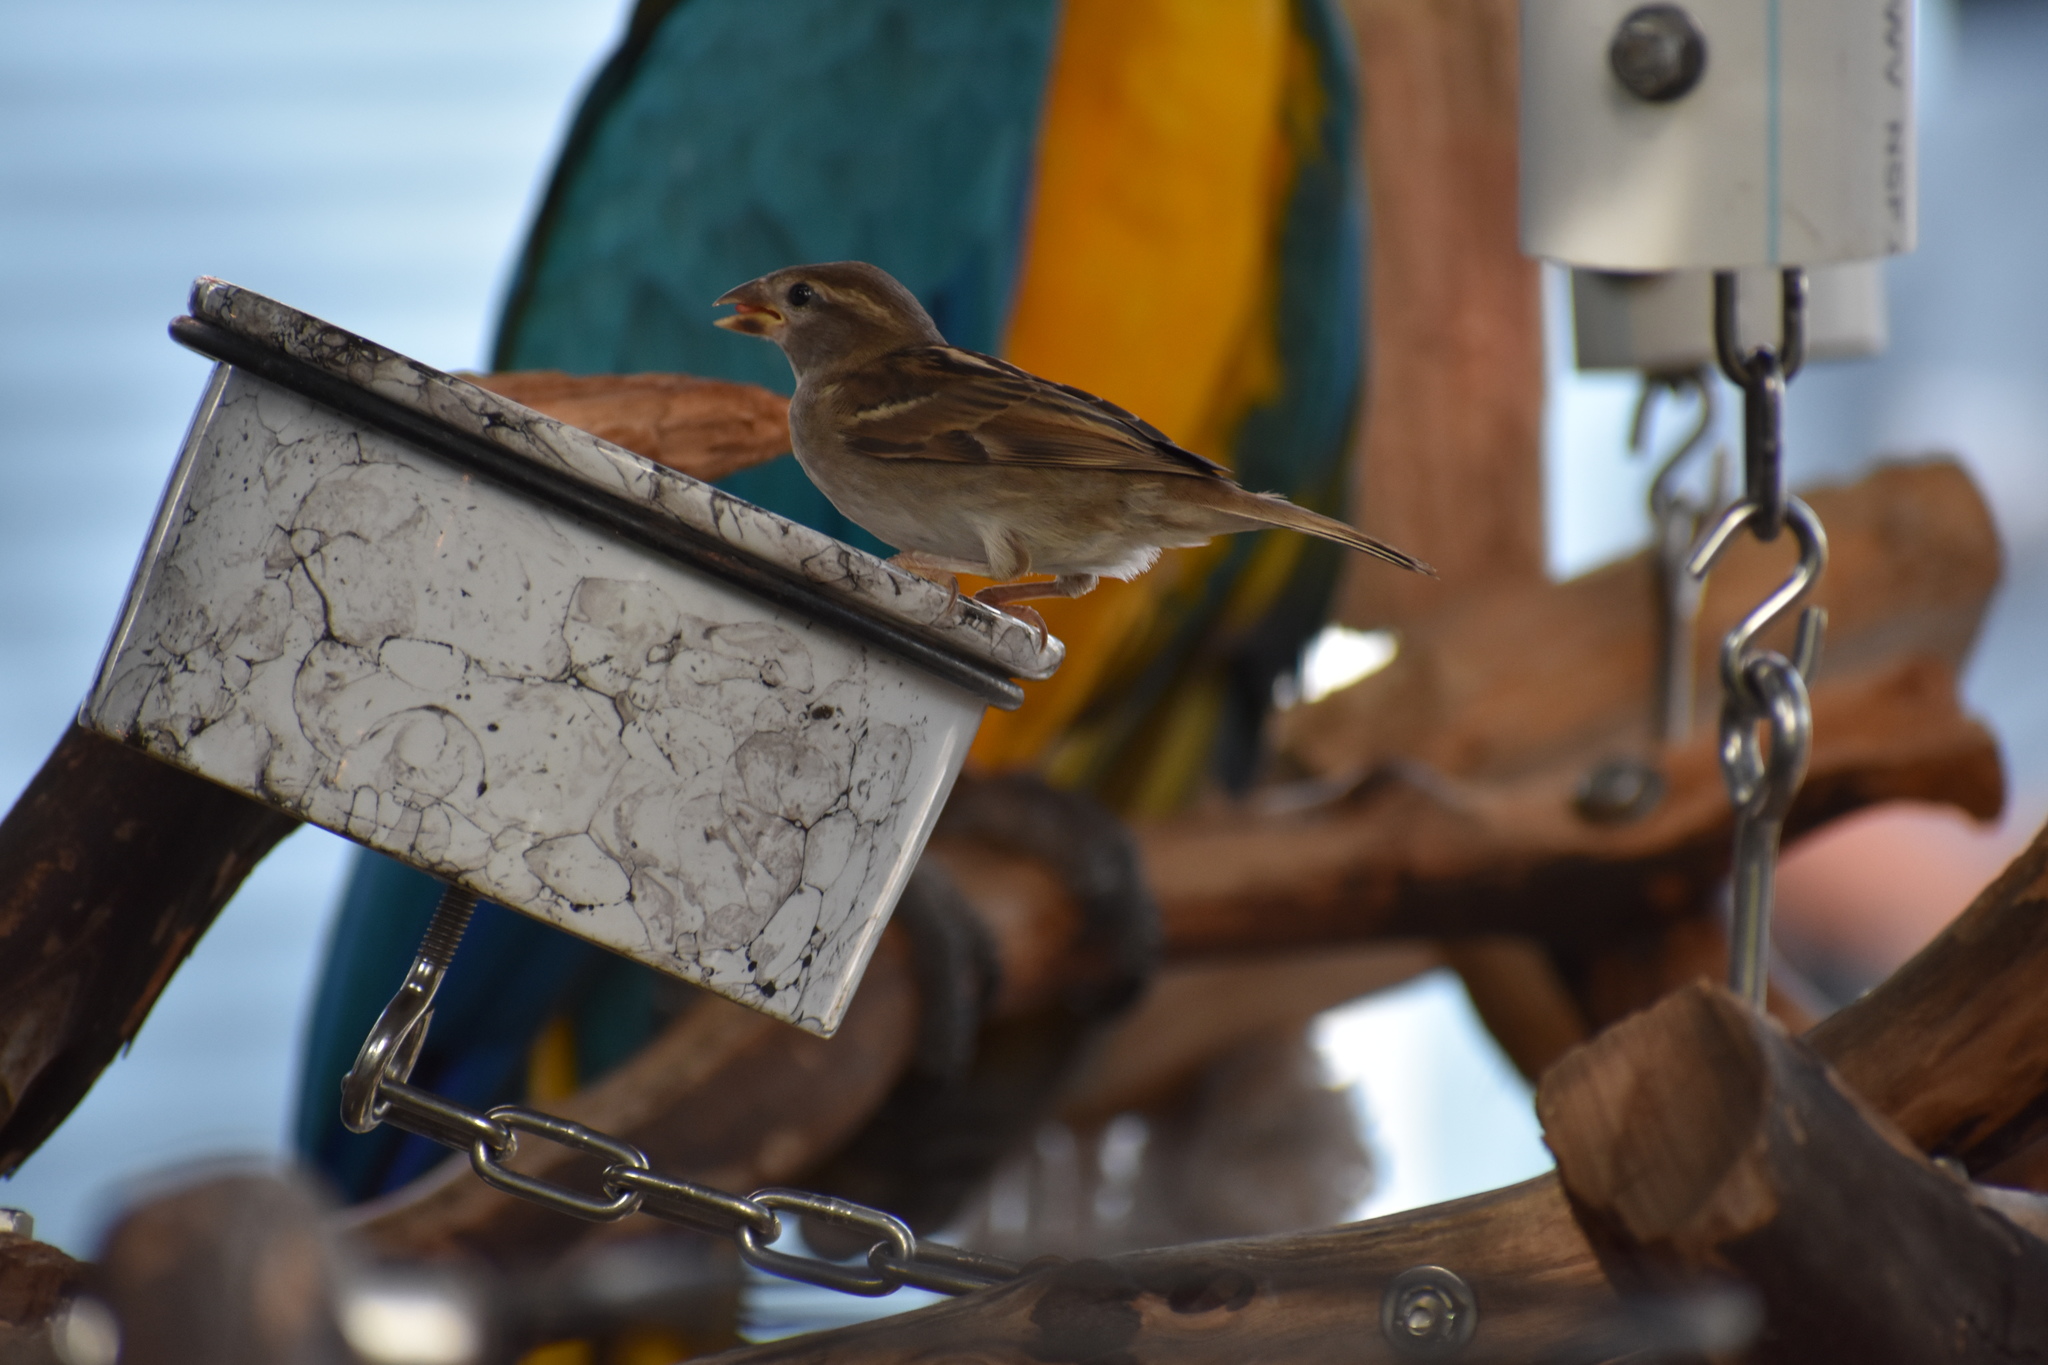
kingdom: Animalia
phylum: Chordata
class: Aves
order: Passeriformes
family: Passeridae
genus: Passer
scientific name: Passer domesticus
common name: House sparrow
